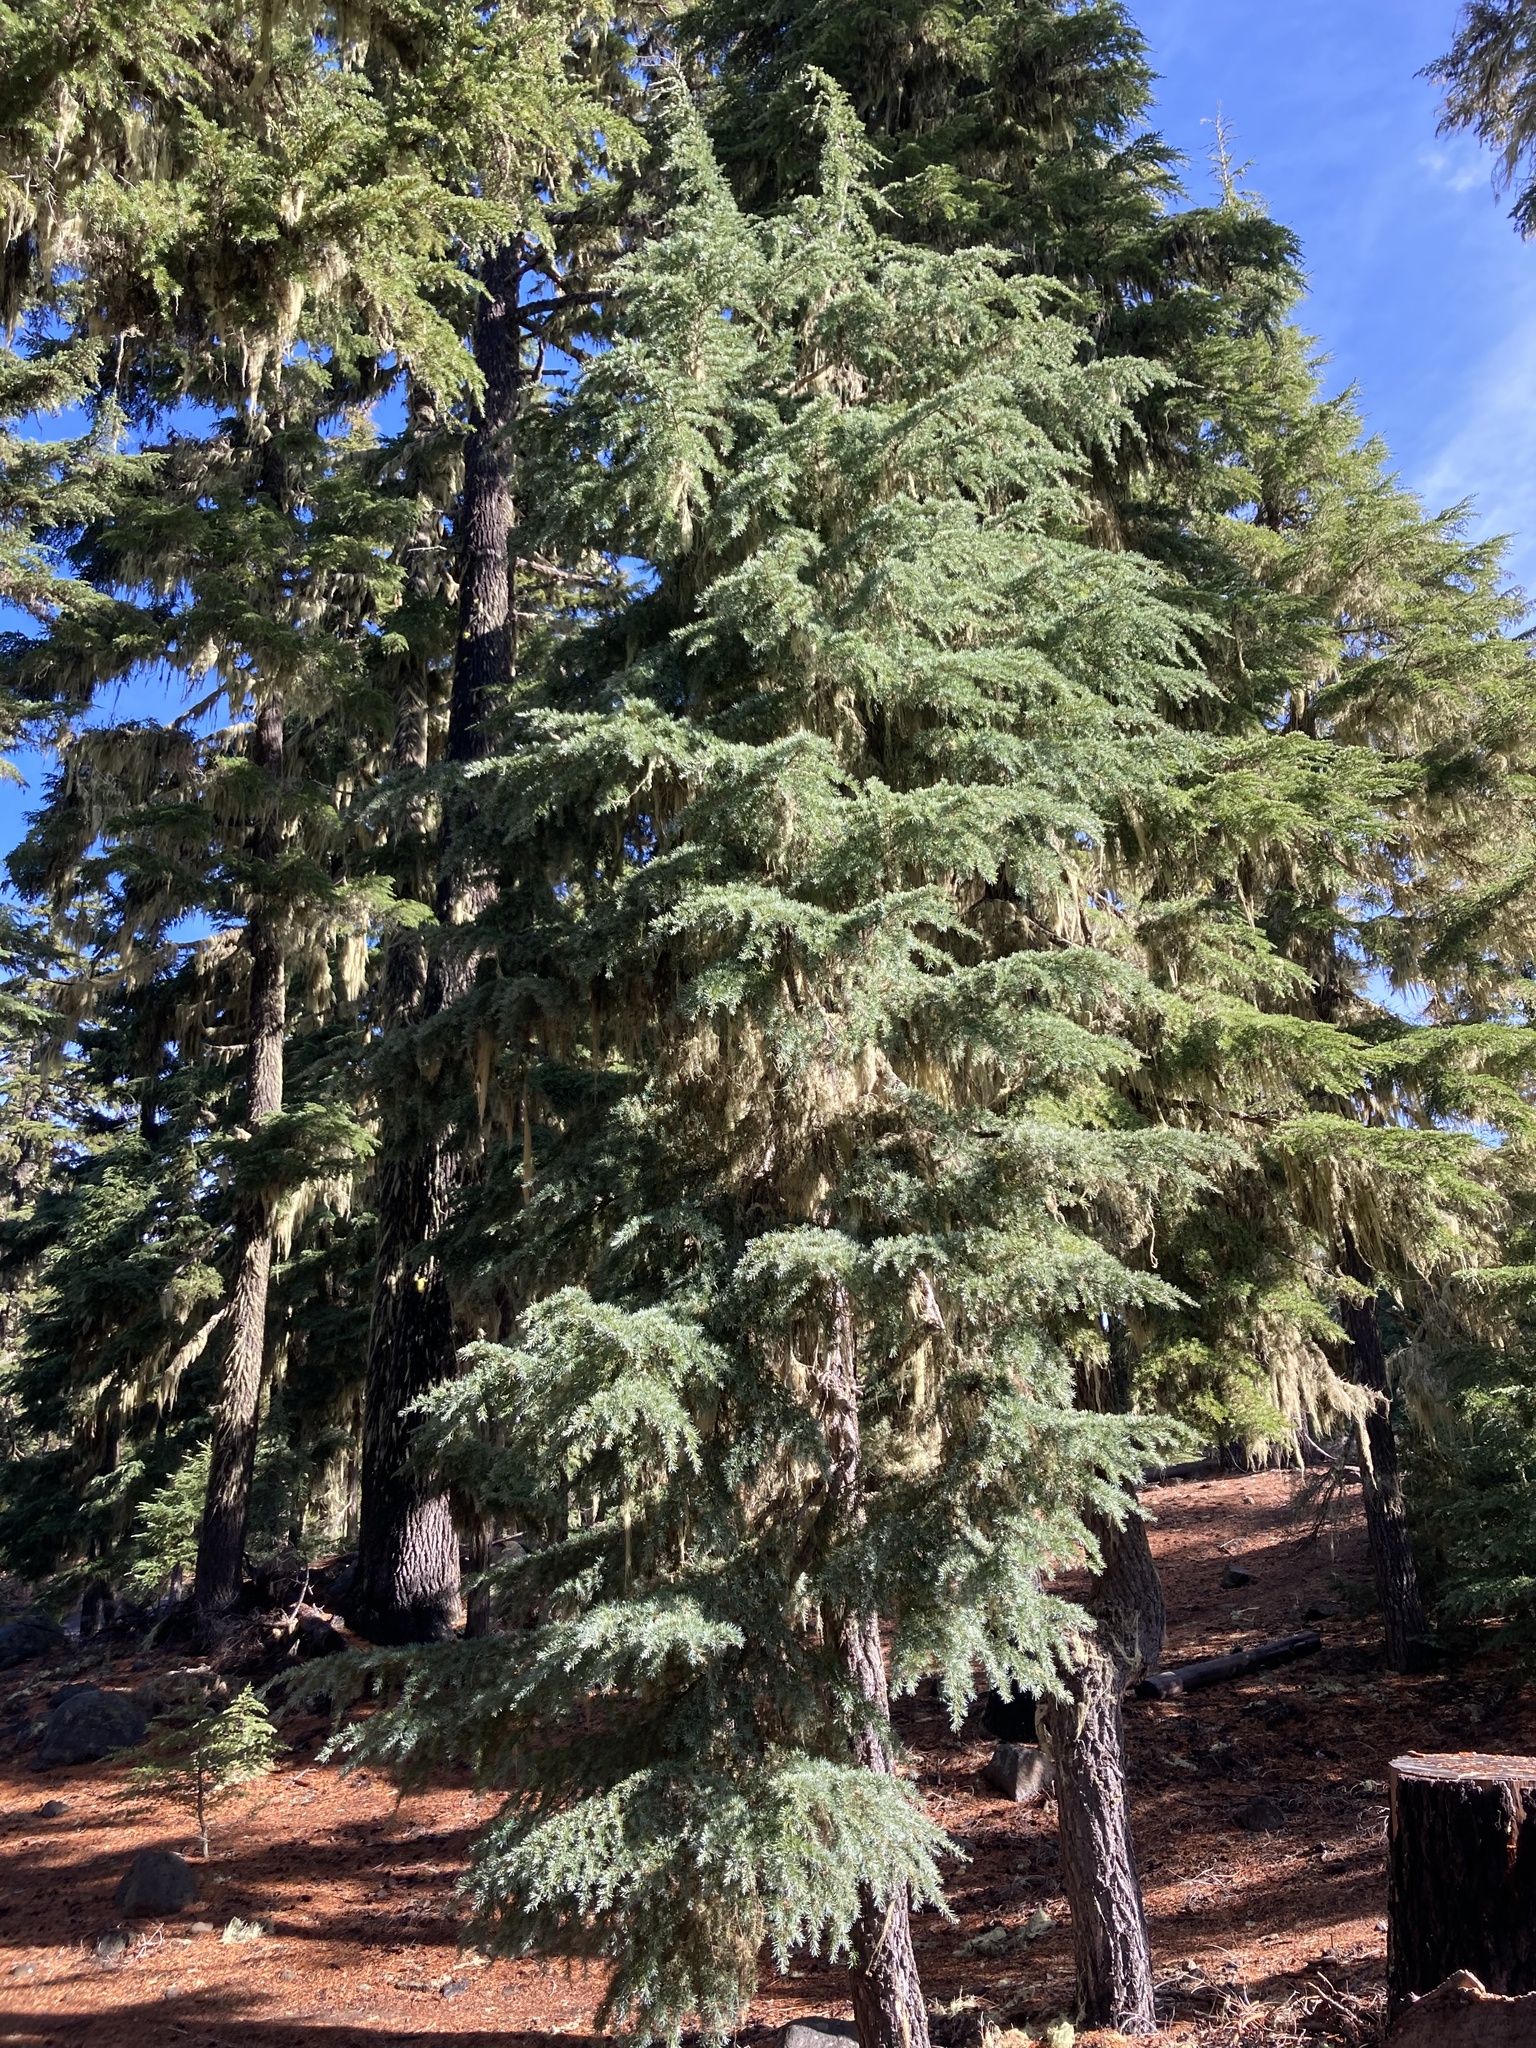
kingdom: Plantae
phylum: Tracheophyta
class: Pinopsida
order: Pinales
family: Pinaceae
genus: Tsuga
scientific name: Tsuga mertensiana
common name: Mountain hemlock
